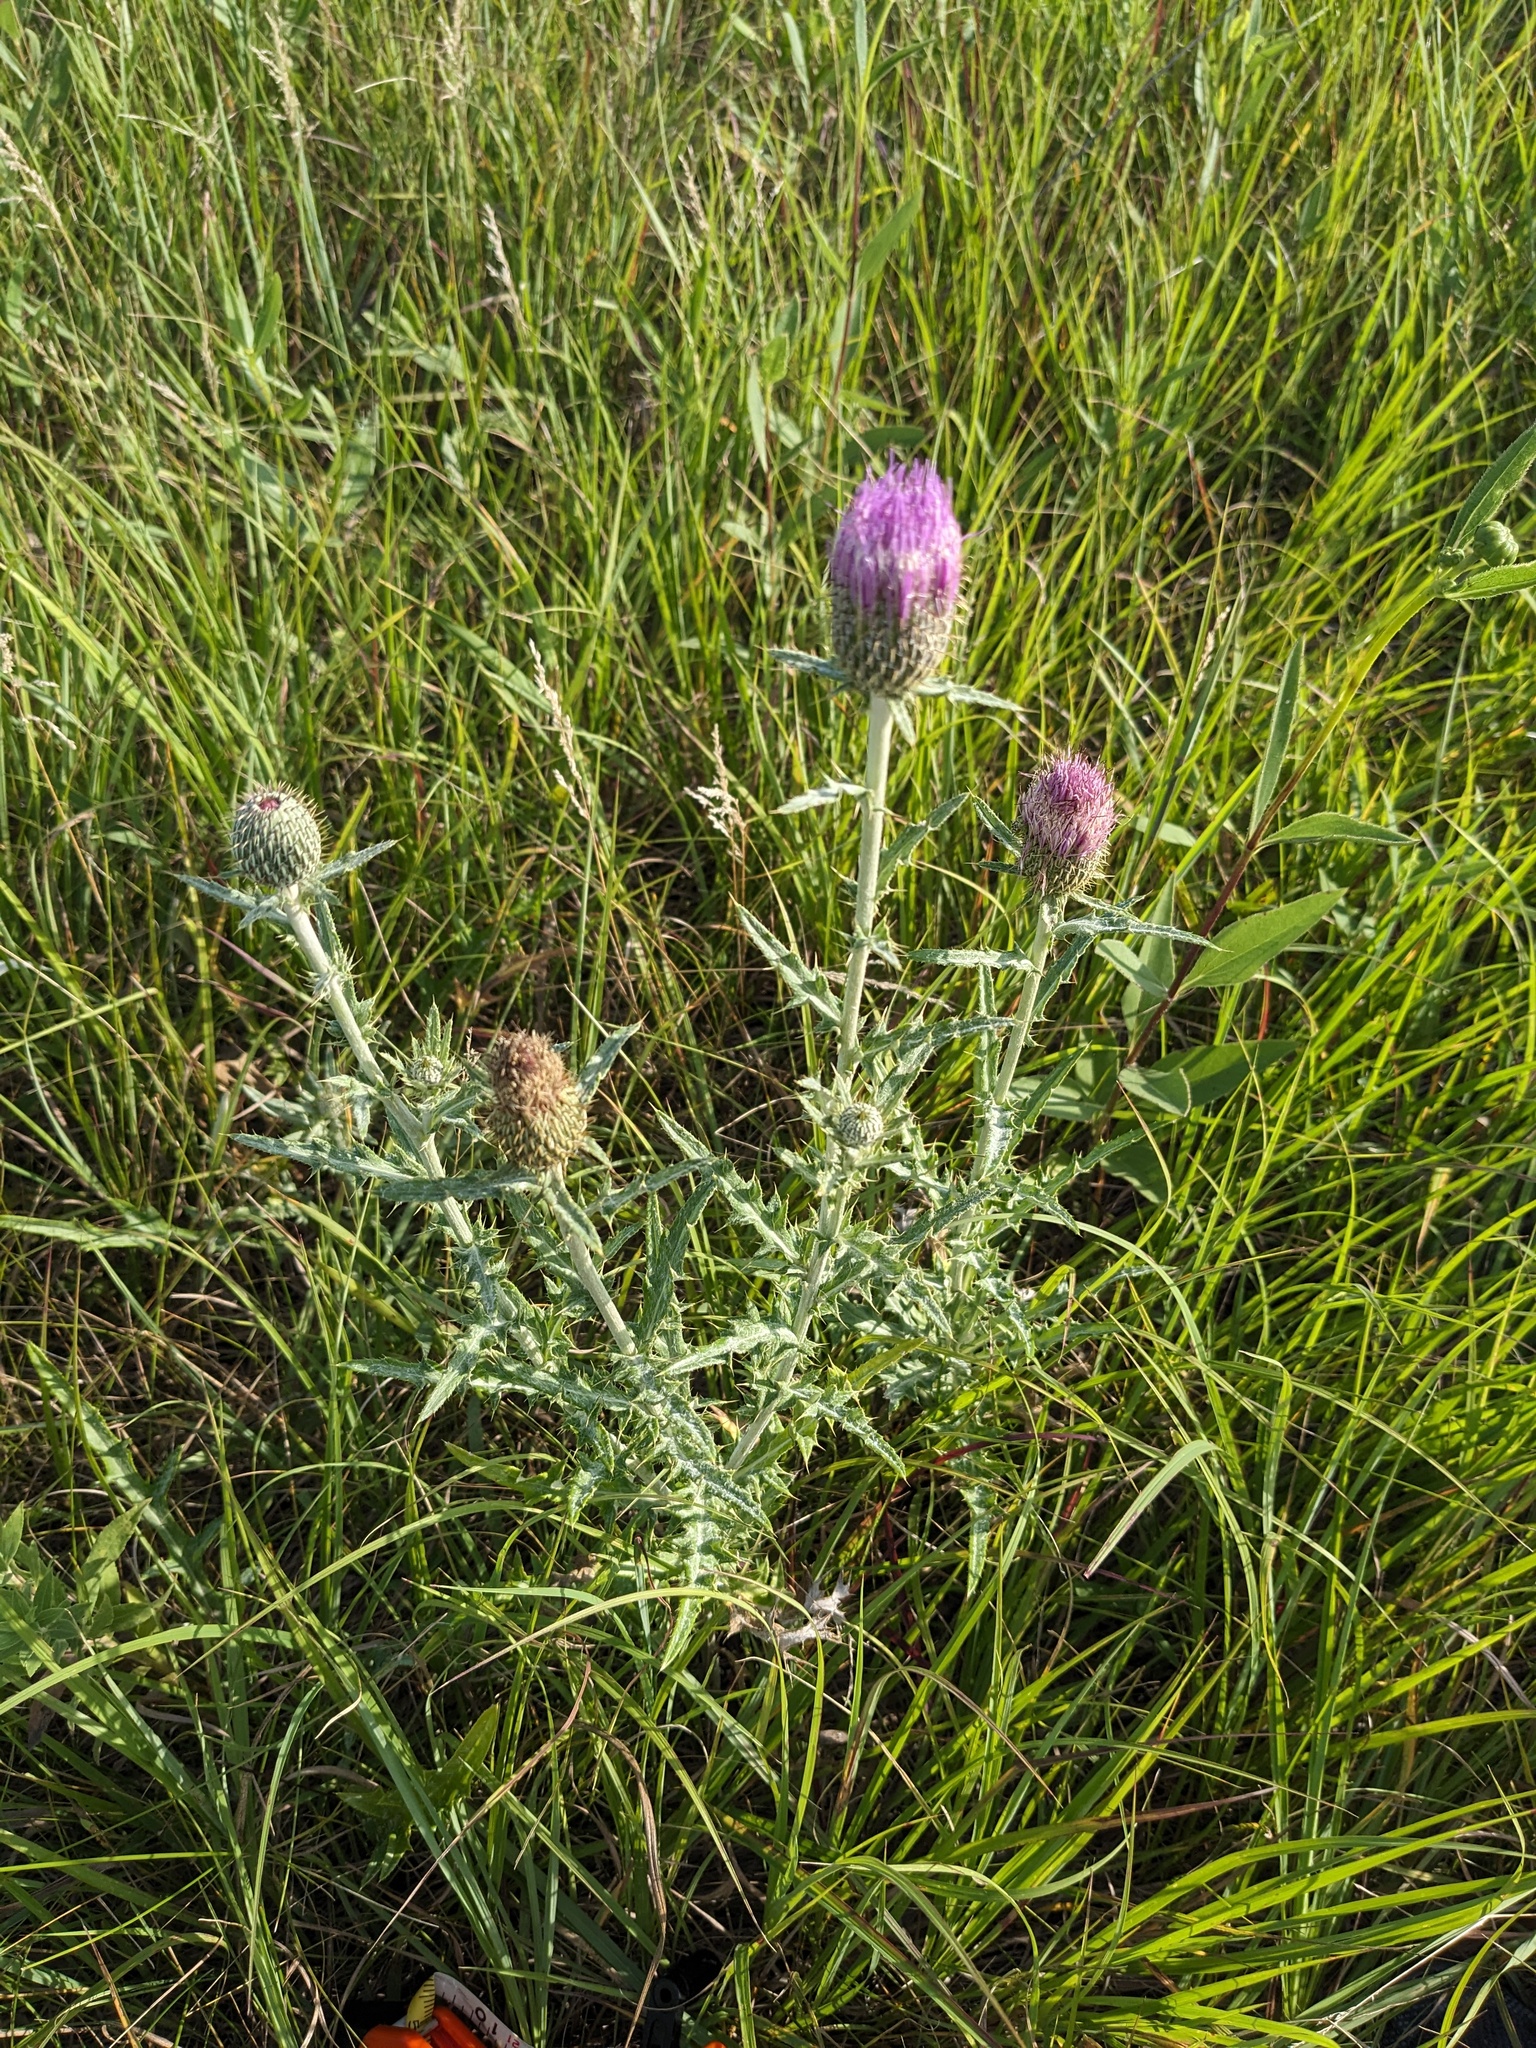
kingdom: Plantae
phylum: Tracheophyta
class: Magnoliopsida
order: Asterales
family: Asteraceae
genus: Cirsium
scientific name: Cirsium flodmanii
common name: Flodman's thistle
